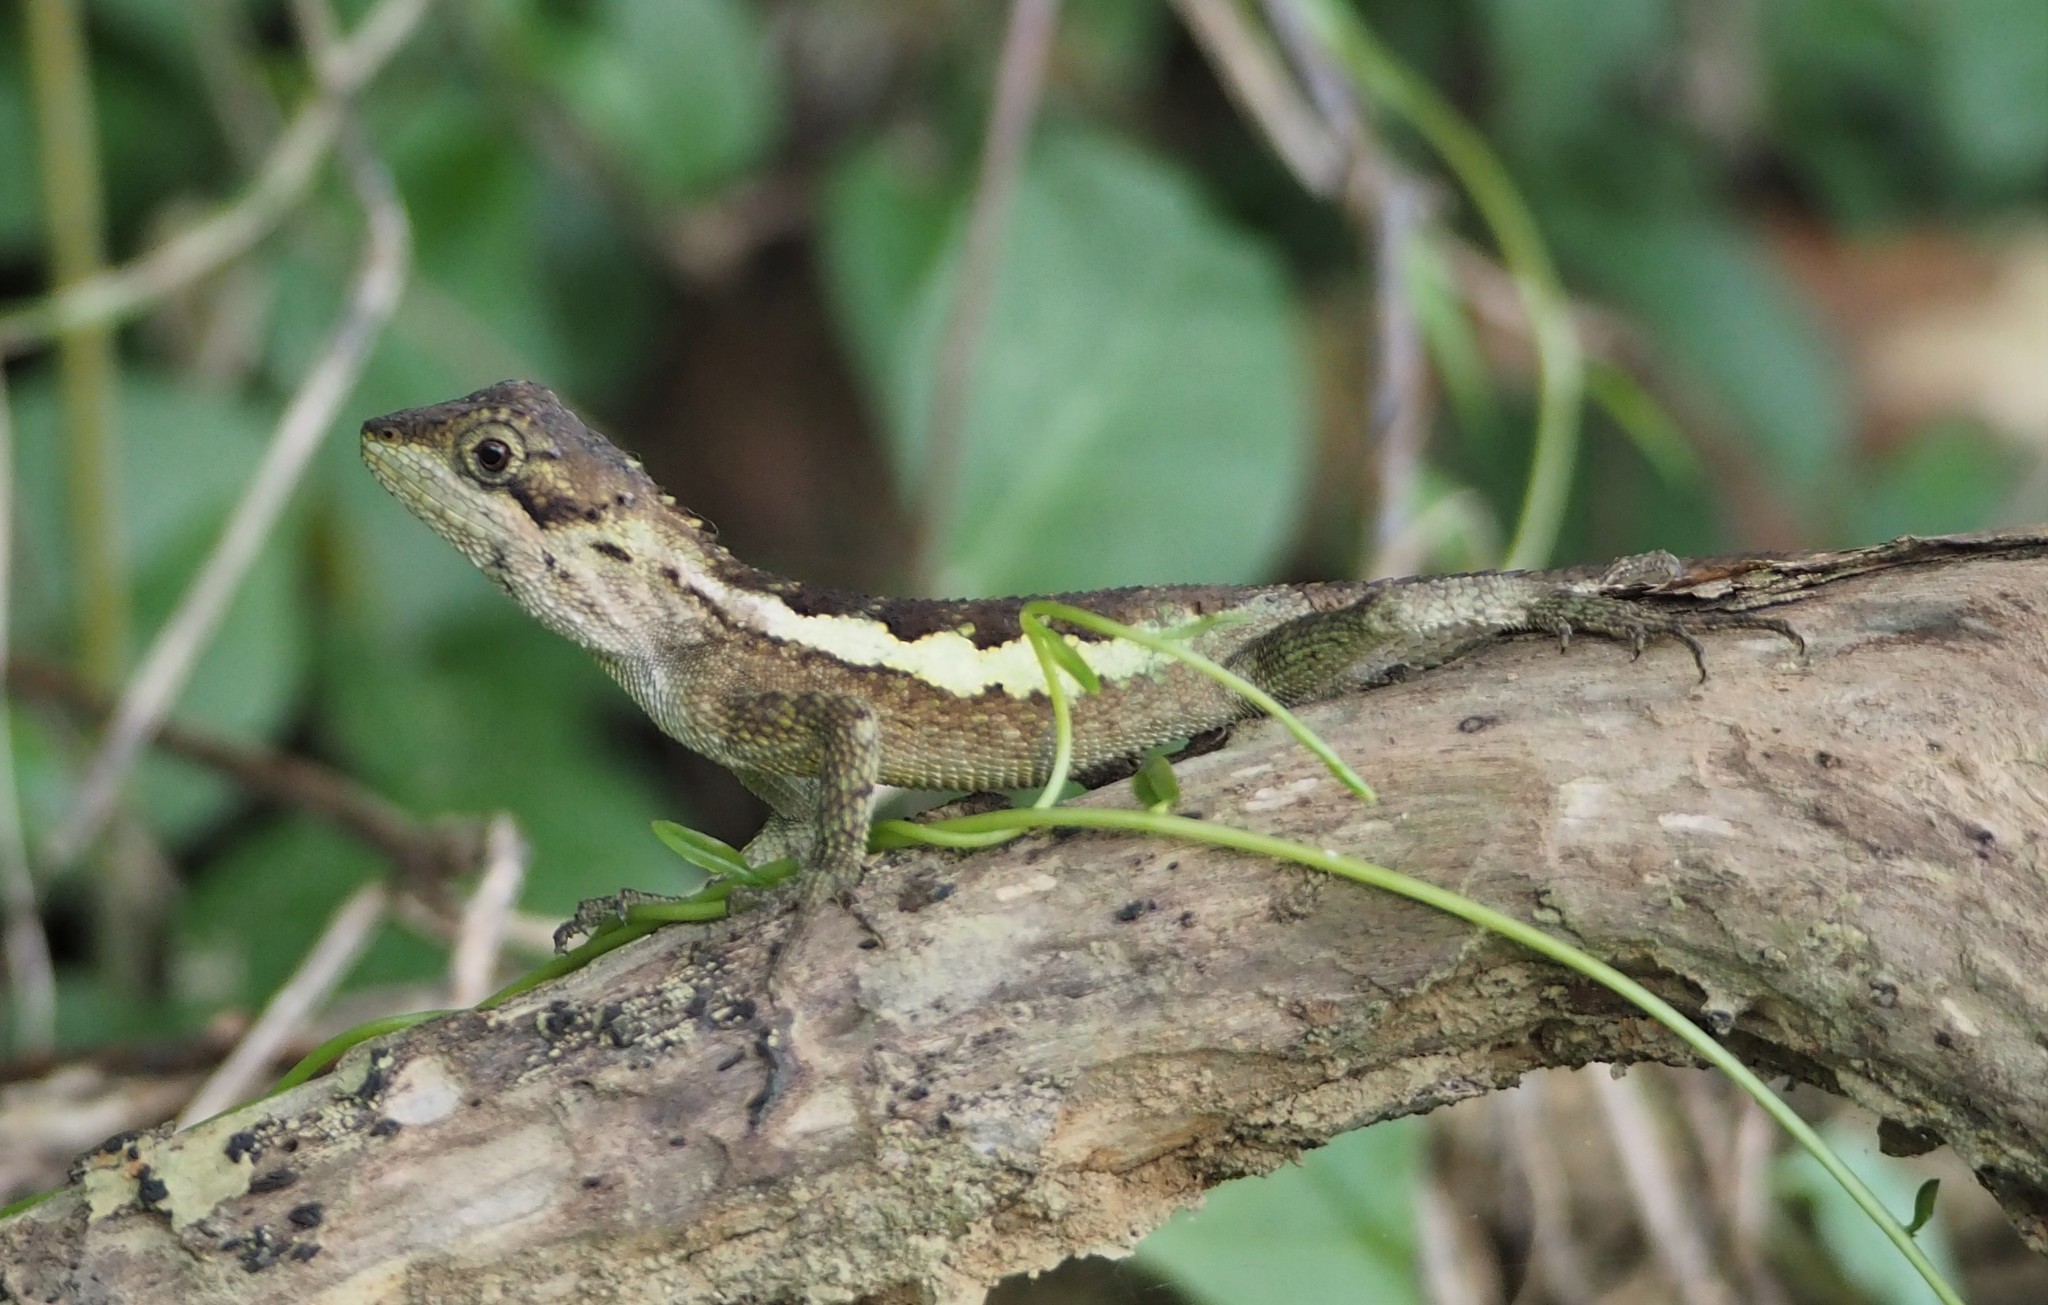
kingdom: Fungi
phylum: Basidiomycota
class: Agaricomycetes
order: Boletales
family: Diplocystidiaceae
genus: Diploderma
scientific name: Diploderma polygonatum
